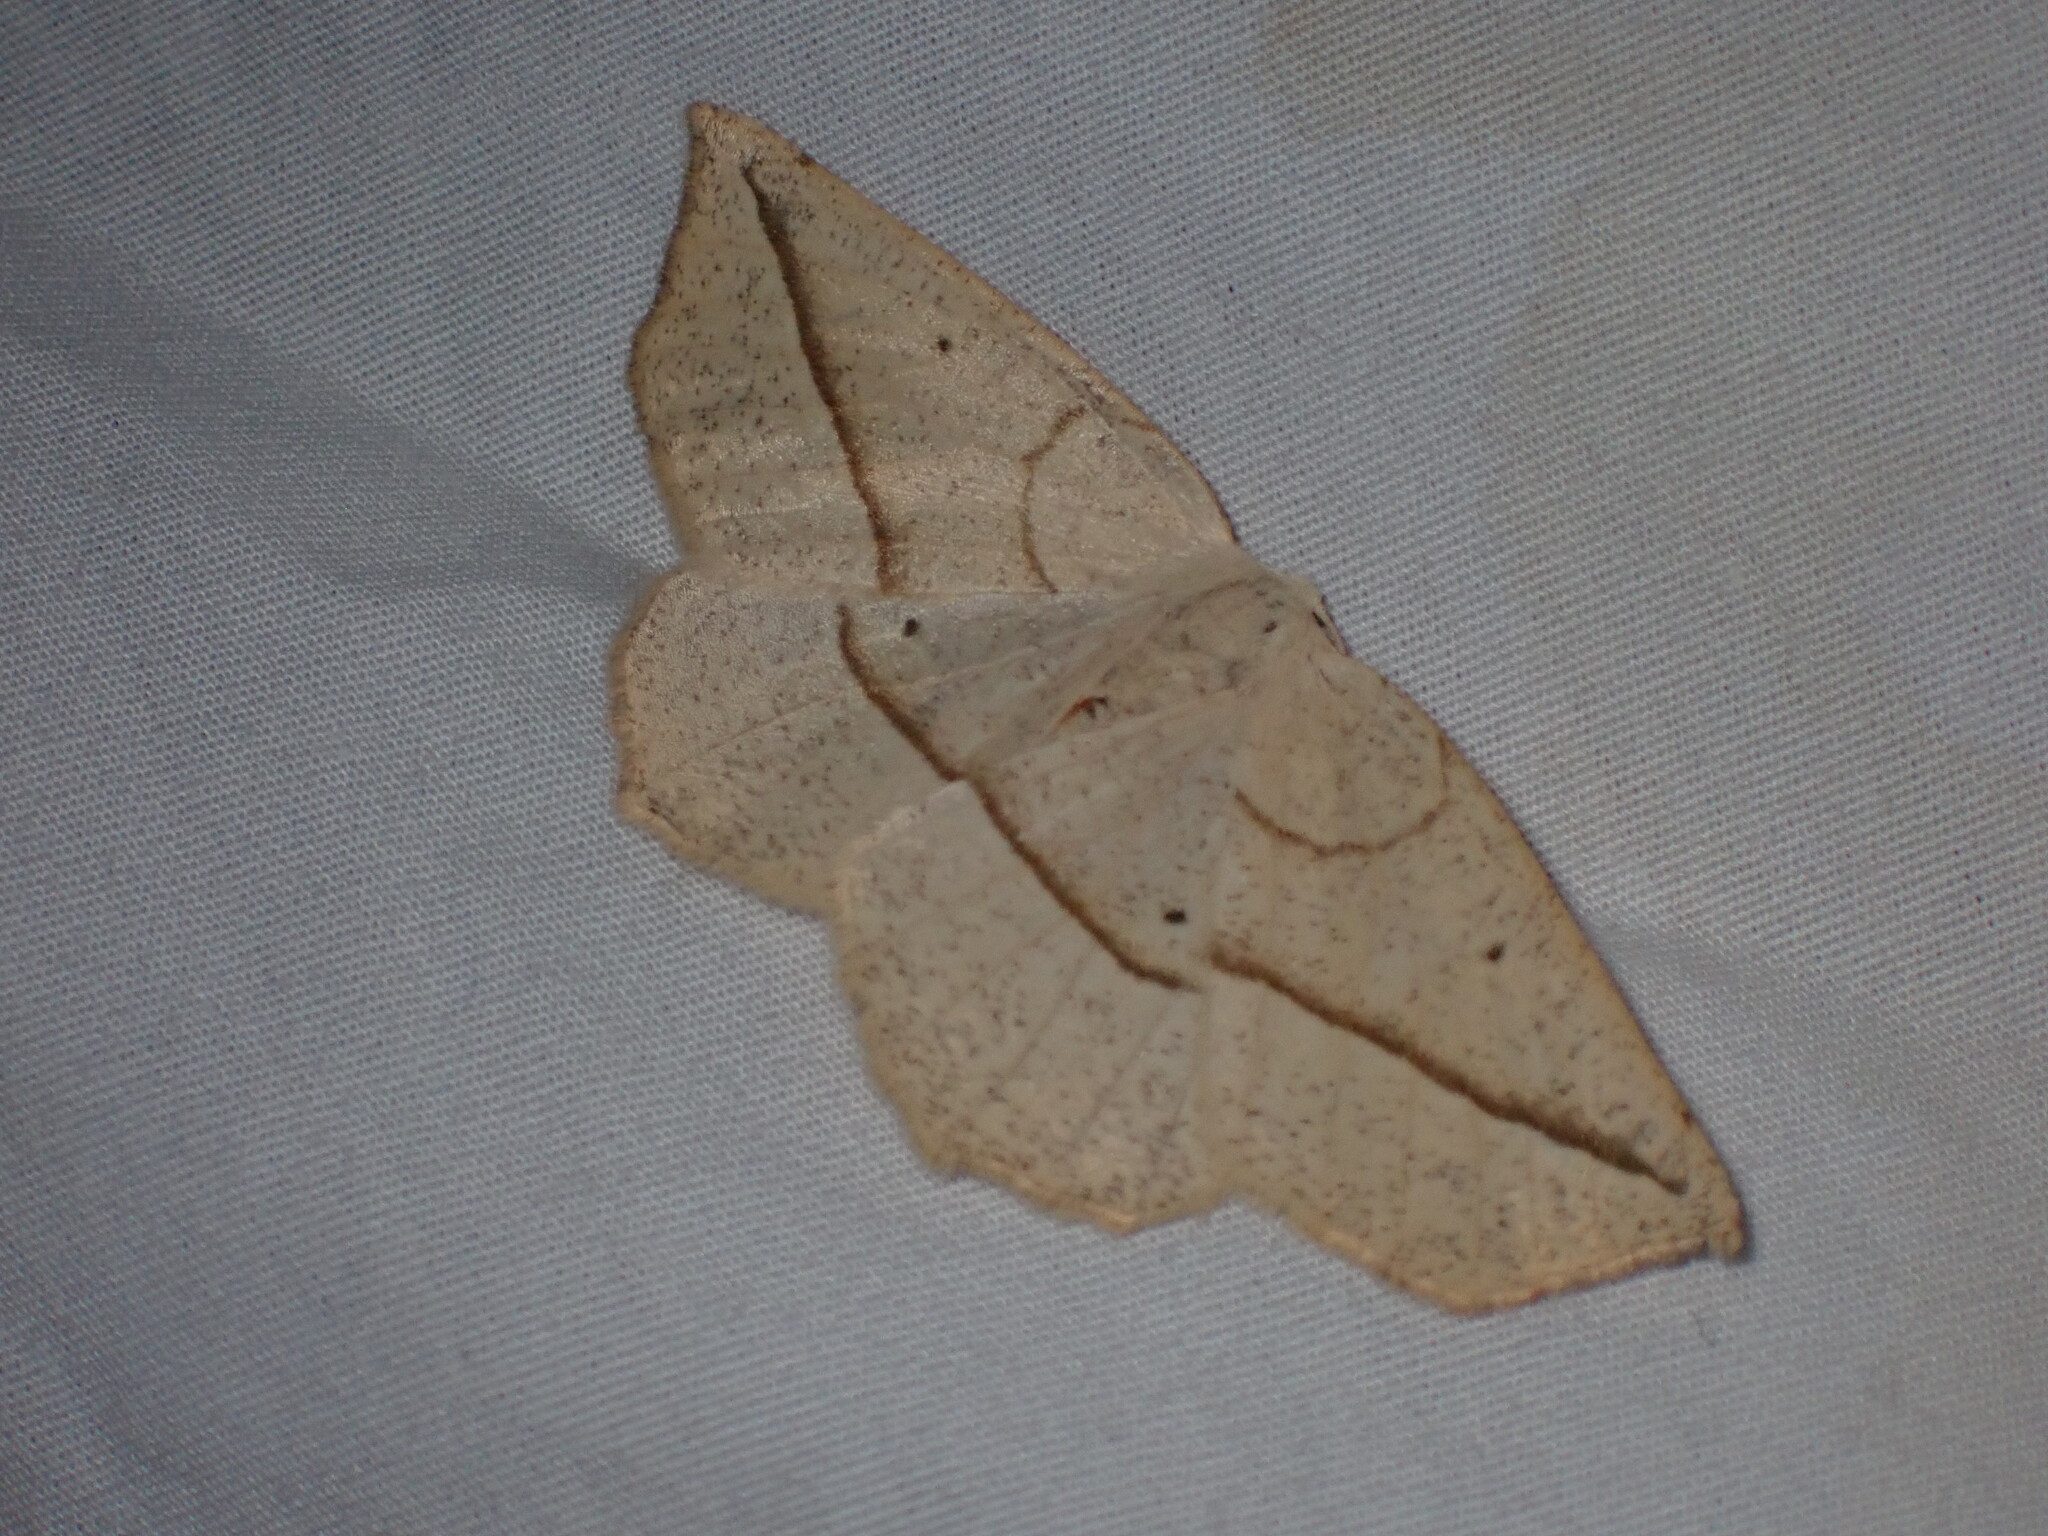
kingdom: Animalia
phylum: Arthropoda
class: Insecta
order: Lepidoptera
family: Geometridae
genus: Eusarca
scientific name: Eusarca confusaria
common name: Confused eusarca
